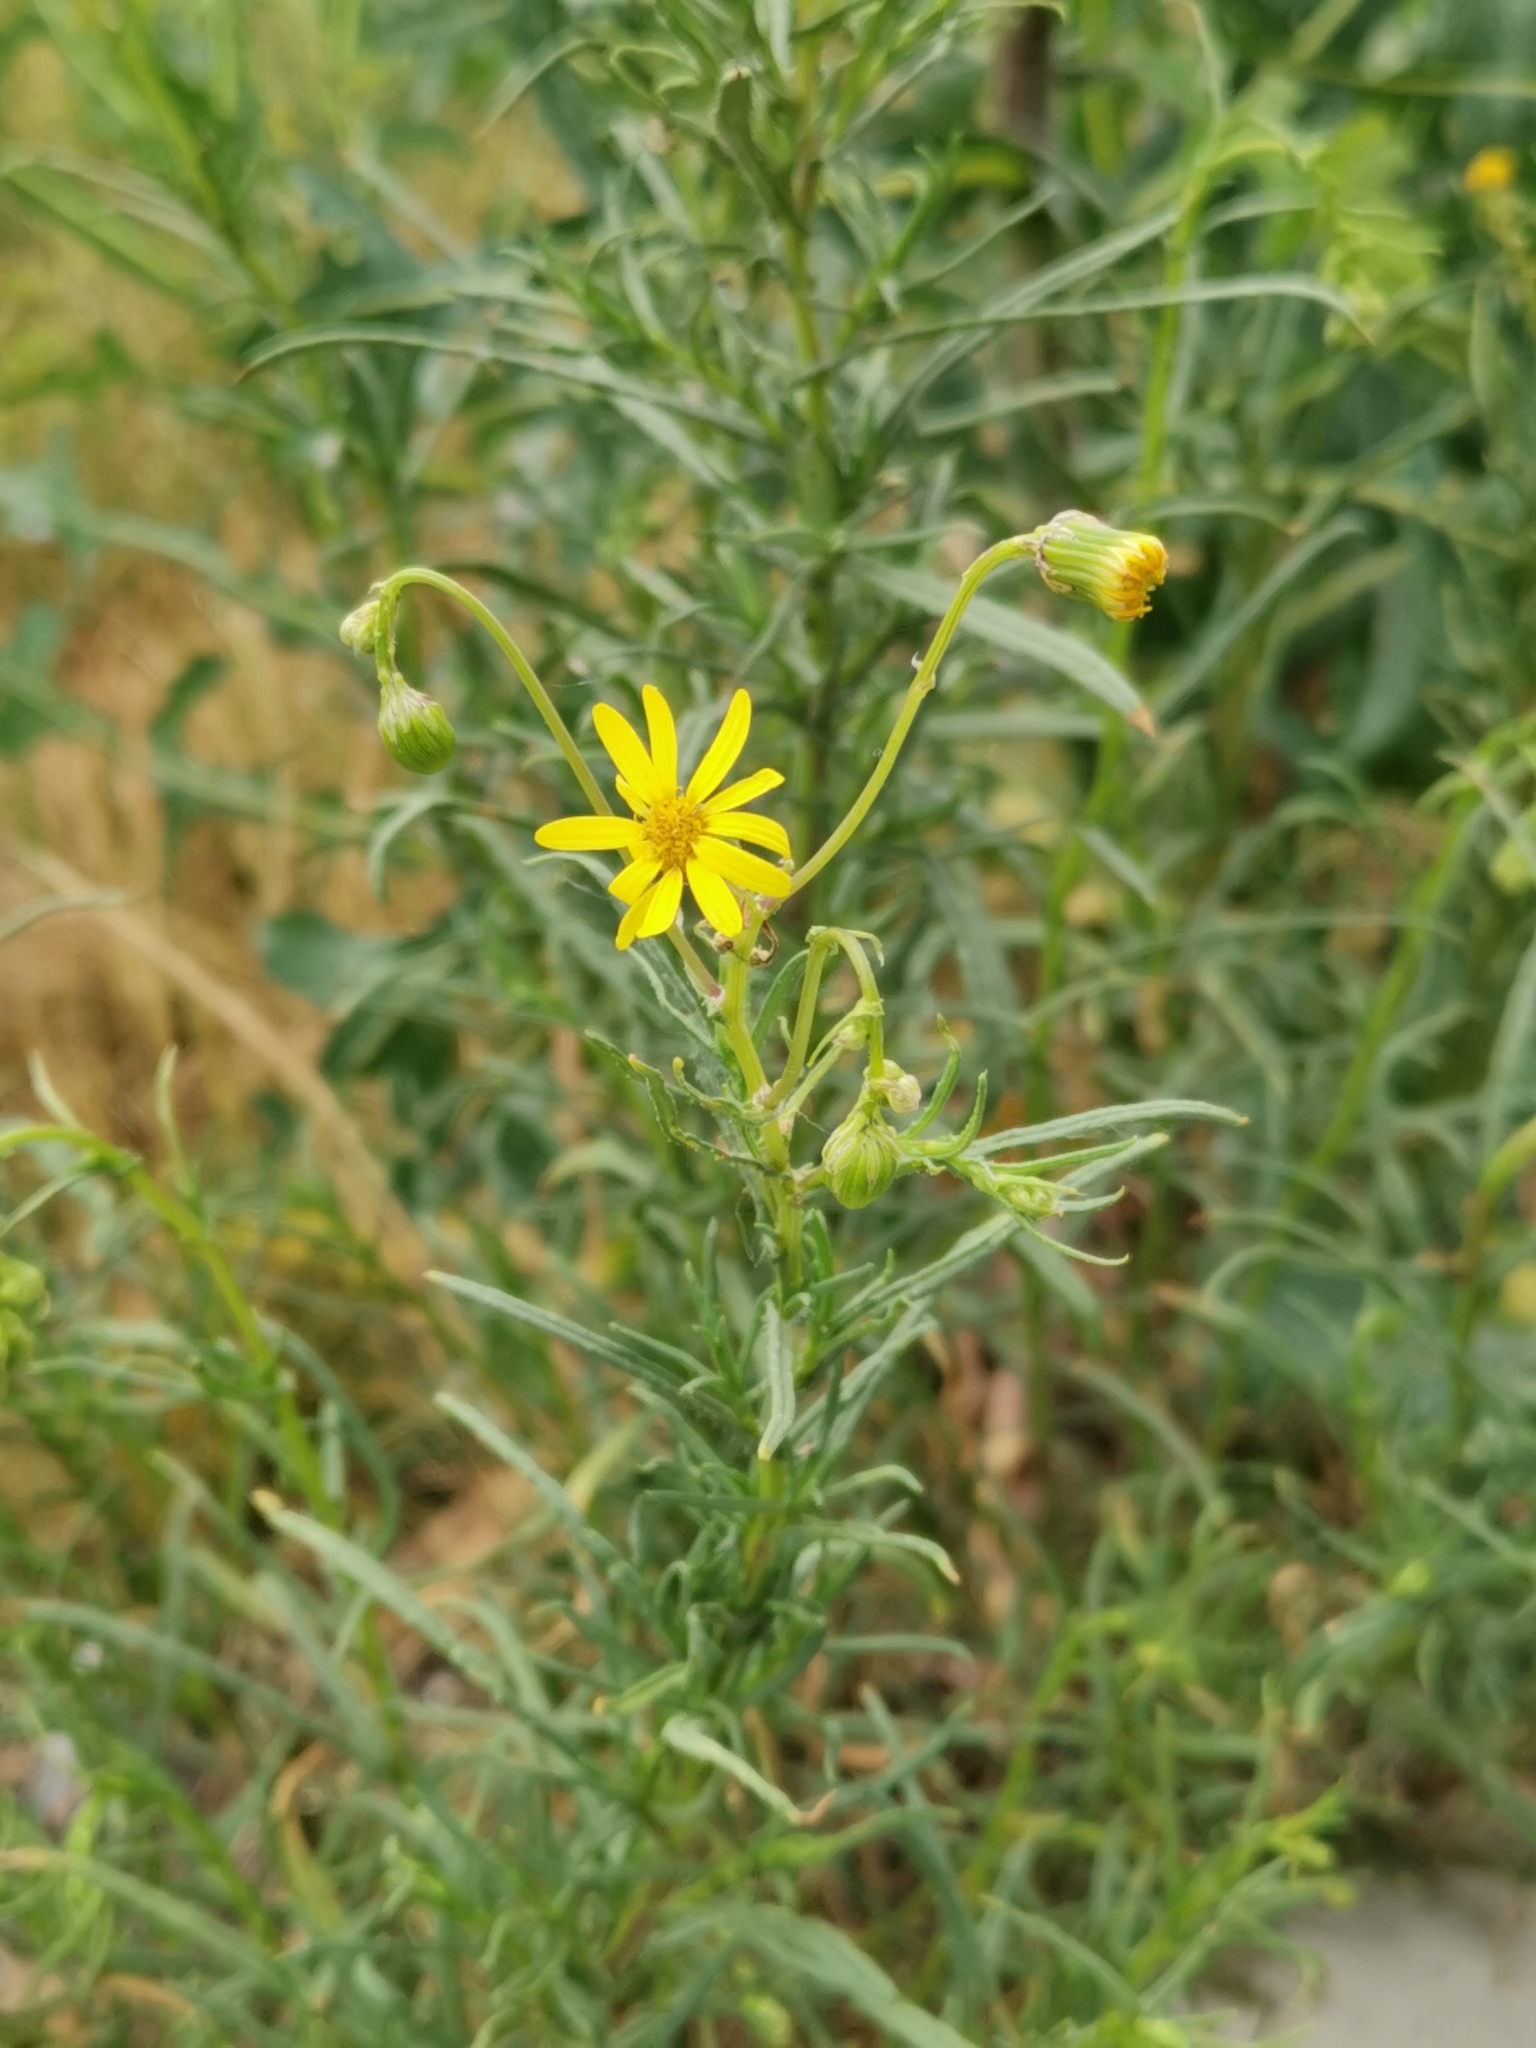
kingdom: Plantae
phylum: Tracheophyta
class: Magnoliopsida
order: Asterales
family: Asteraceae
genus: Senecio
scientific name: Senecio inaequidens
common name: Narrow-leaved ragwort
